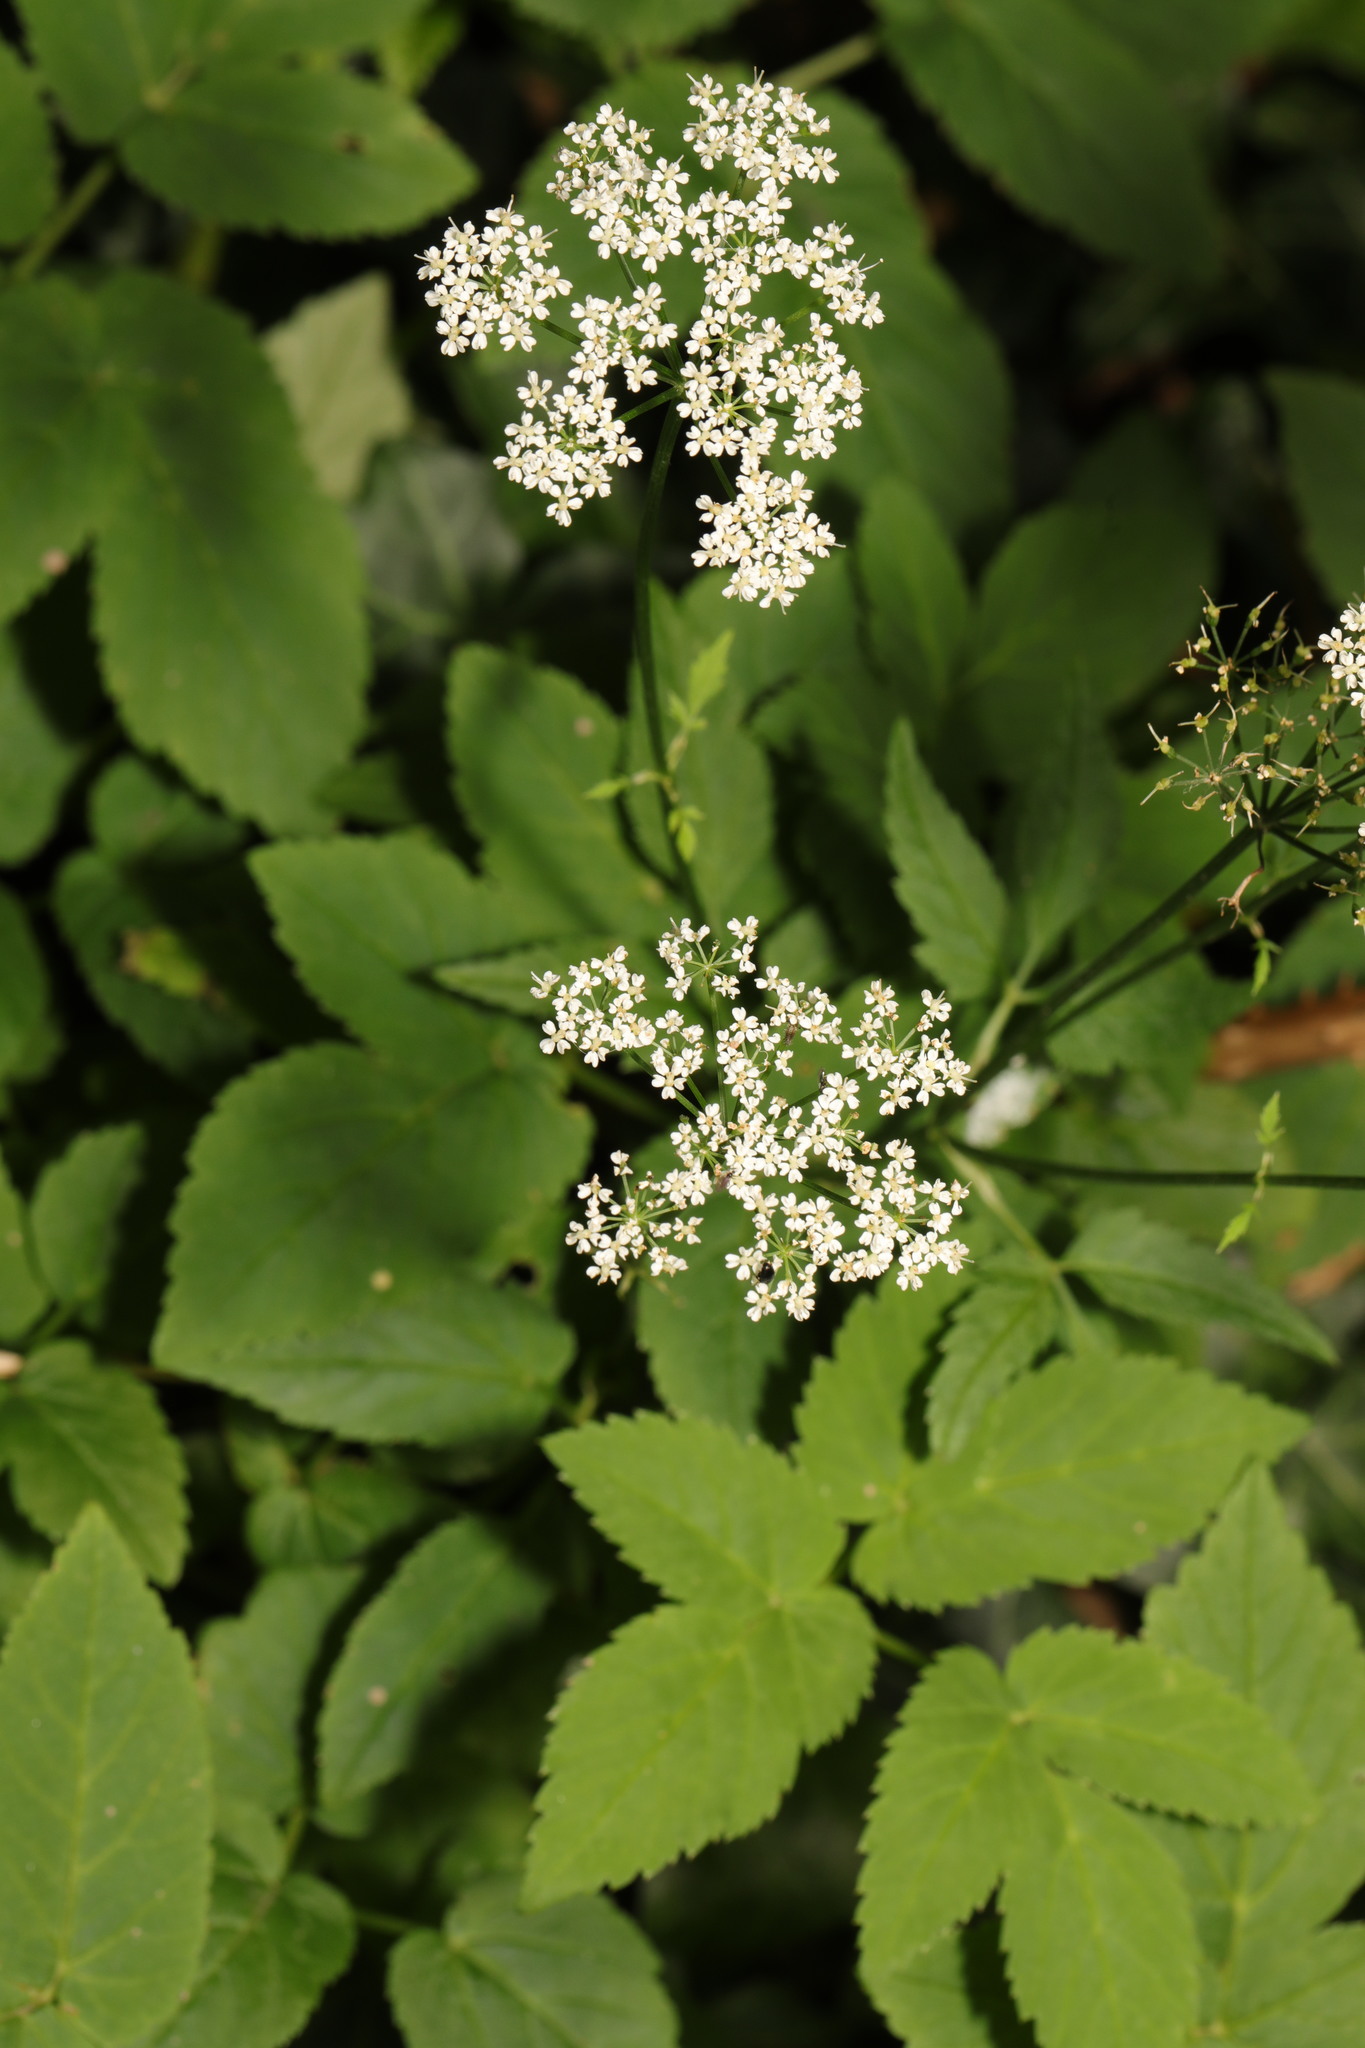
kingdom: Plantae
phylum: Tracheophyta
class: Magnoliopsida
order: Apiales
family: Apiaceae
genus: Aegopodium
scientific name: Aegopodium podagraria
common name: Ground-elder
